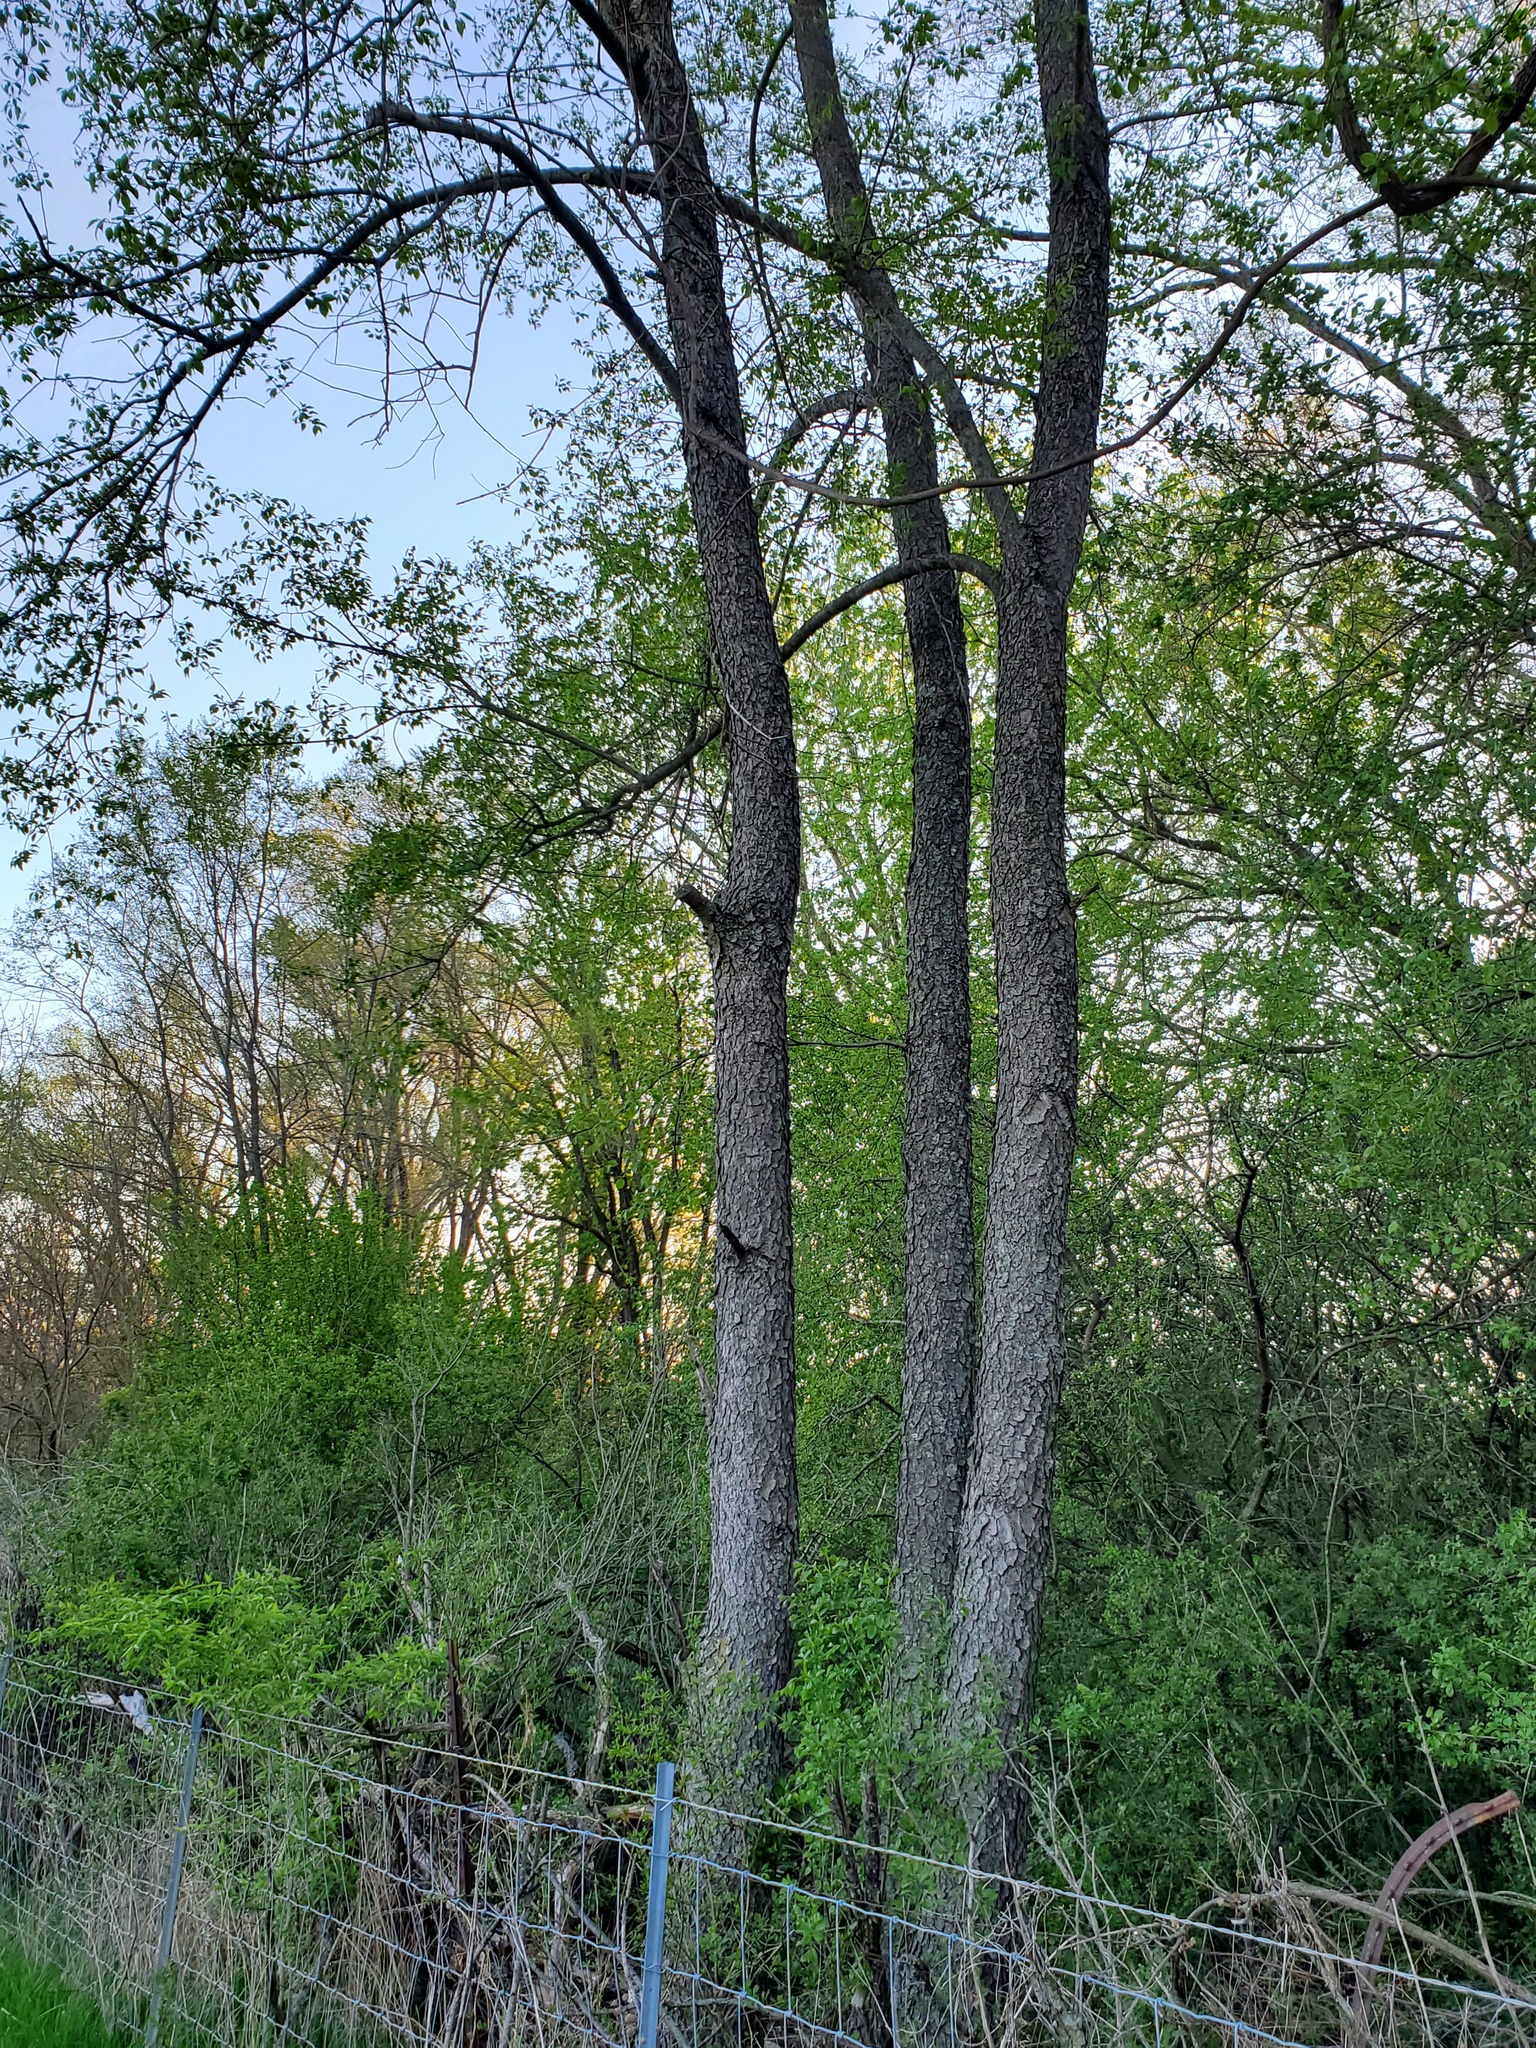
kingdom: Plantae
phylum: Tracheophyta
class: Magnoliopsida
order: Rosales
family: Rosaceae
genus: Prunus
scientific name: Prunus serotina
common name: Black cherry
